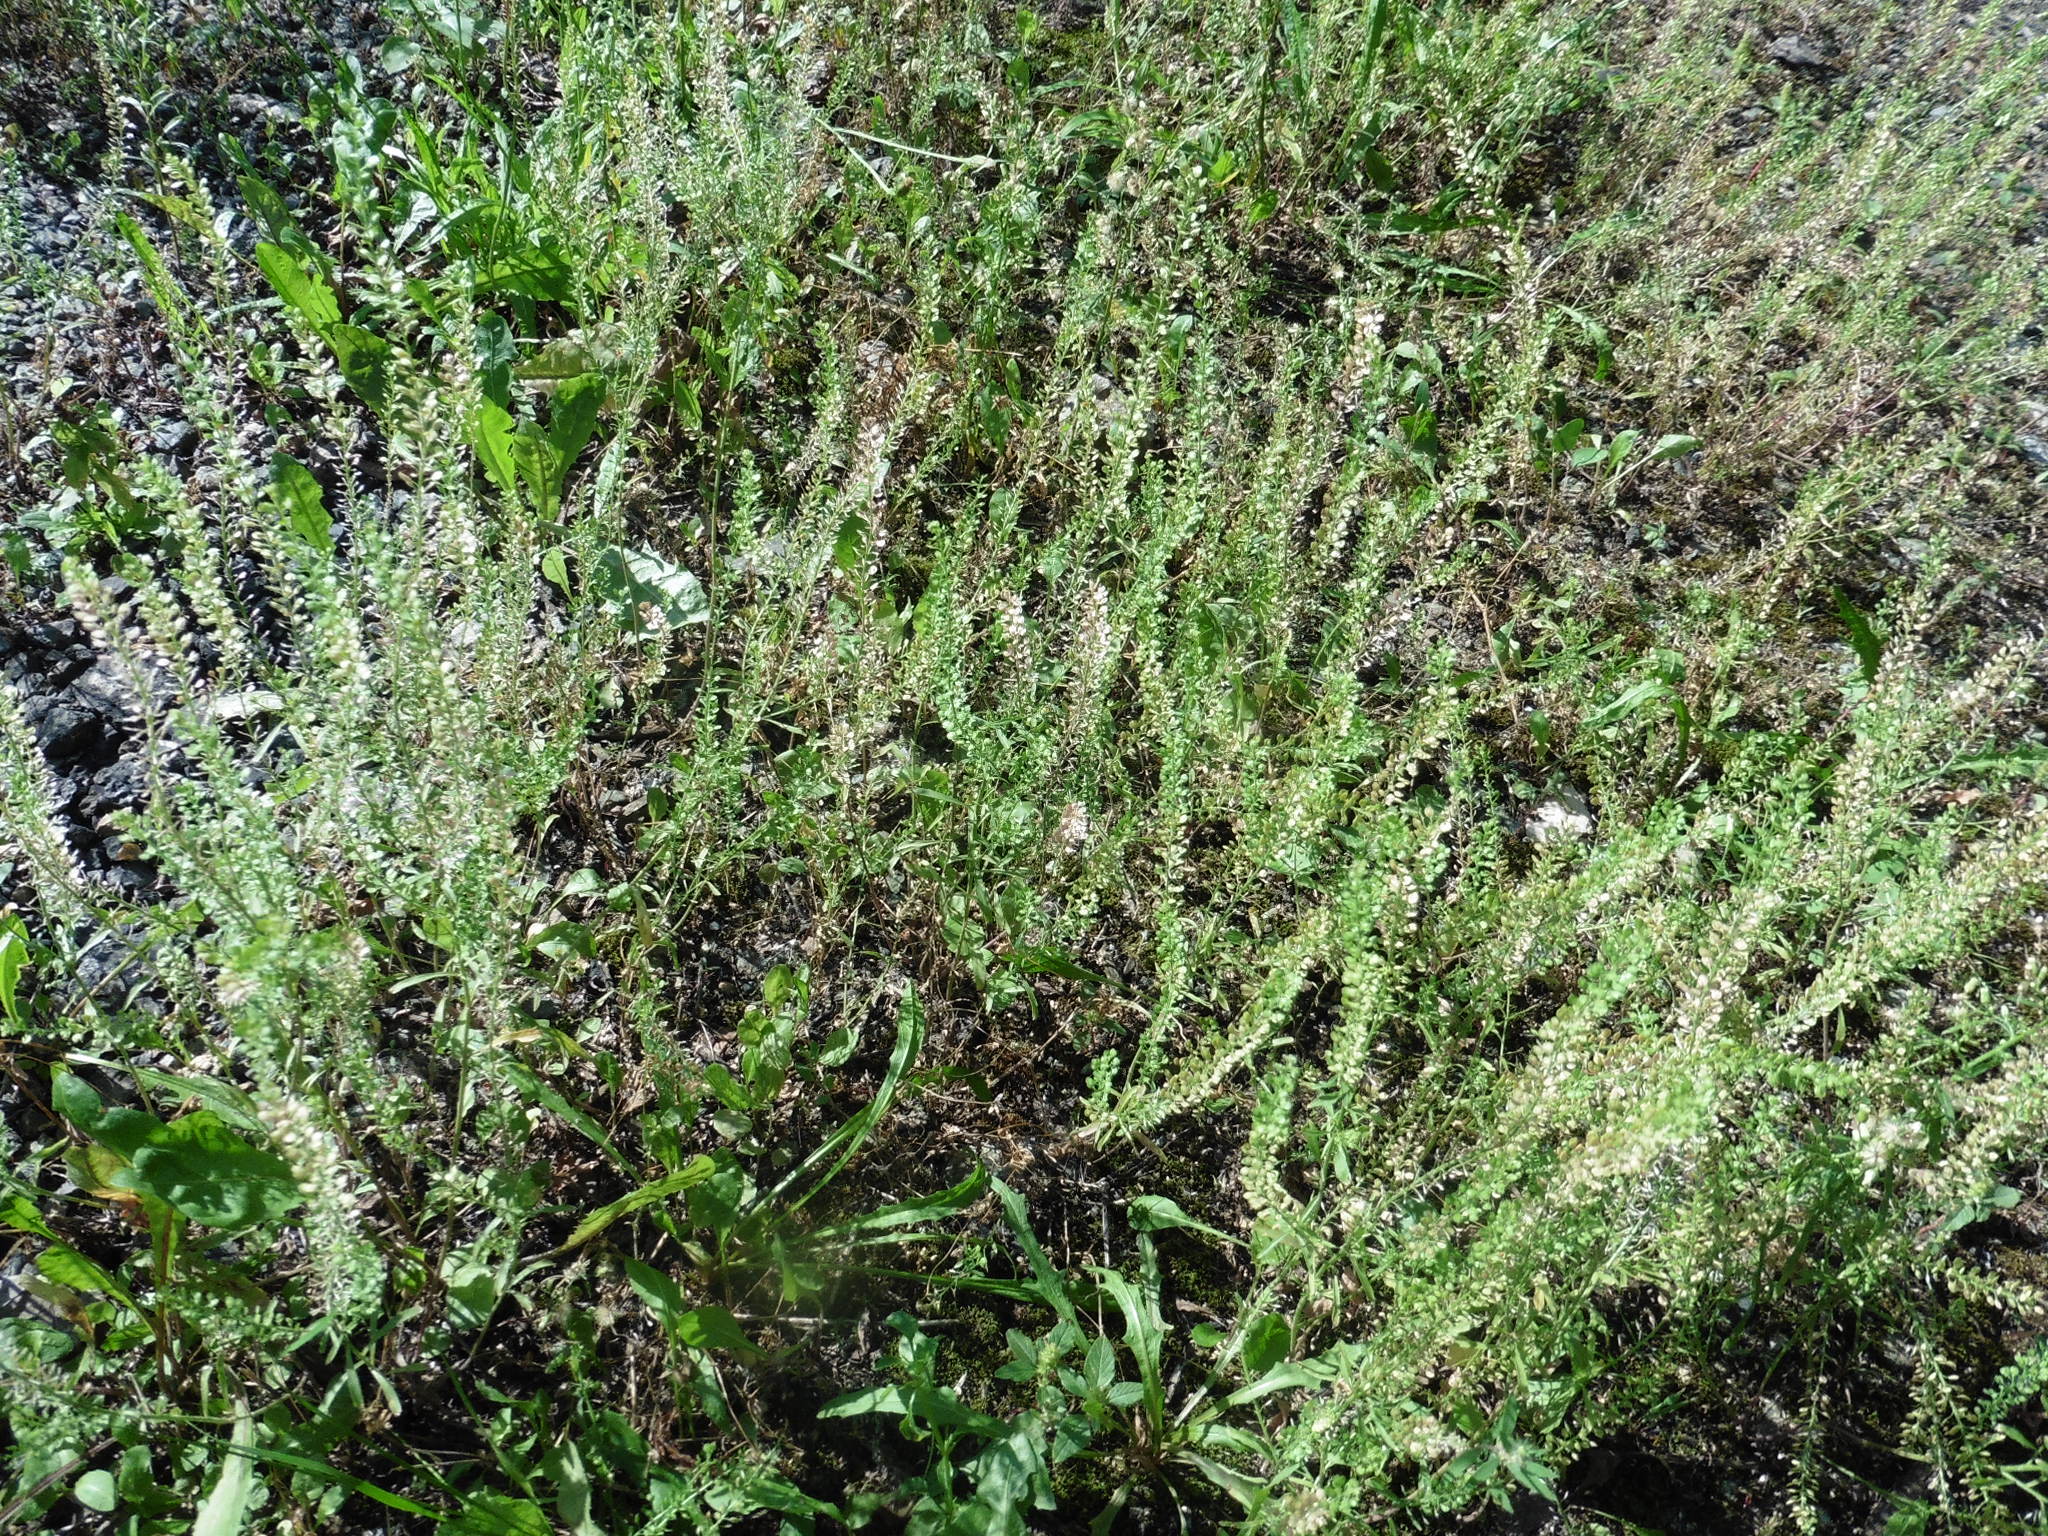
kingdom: Plantae
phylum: Tracheophyta
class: Magnoliopsida
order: Brassicales
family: Brassicaceae
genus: Lepidium
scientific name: Lepidium densiflorum
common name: Miner's pepperwort
